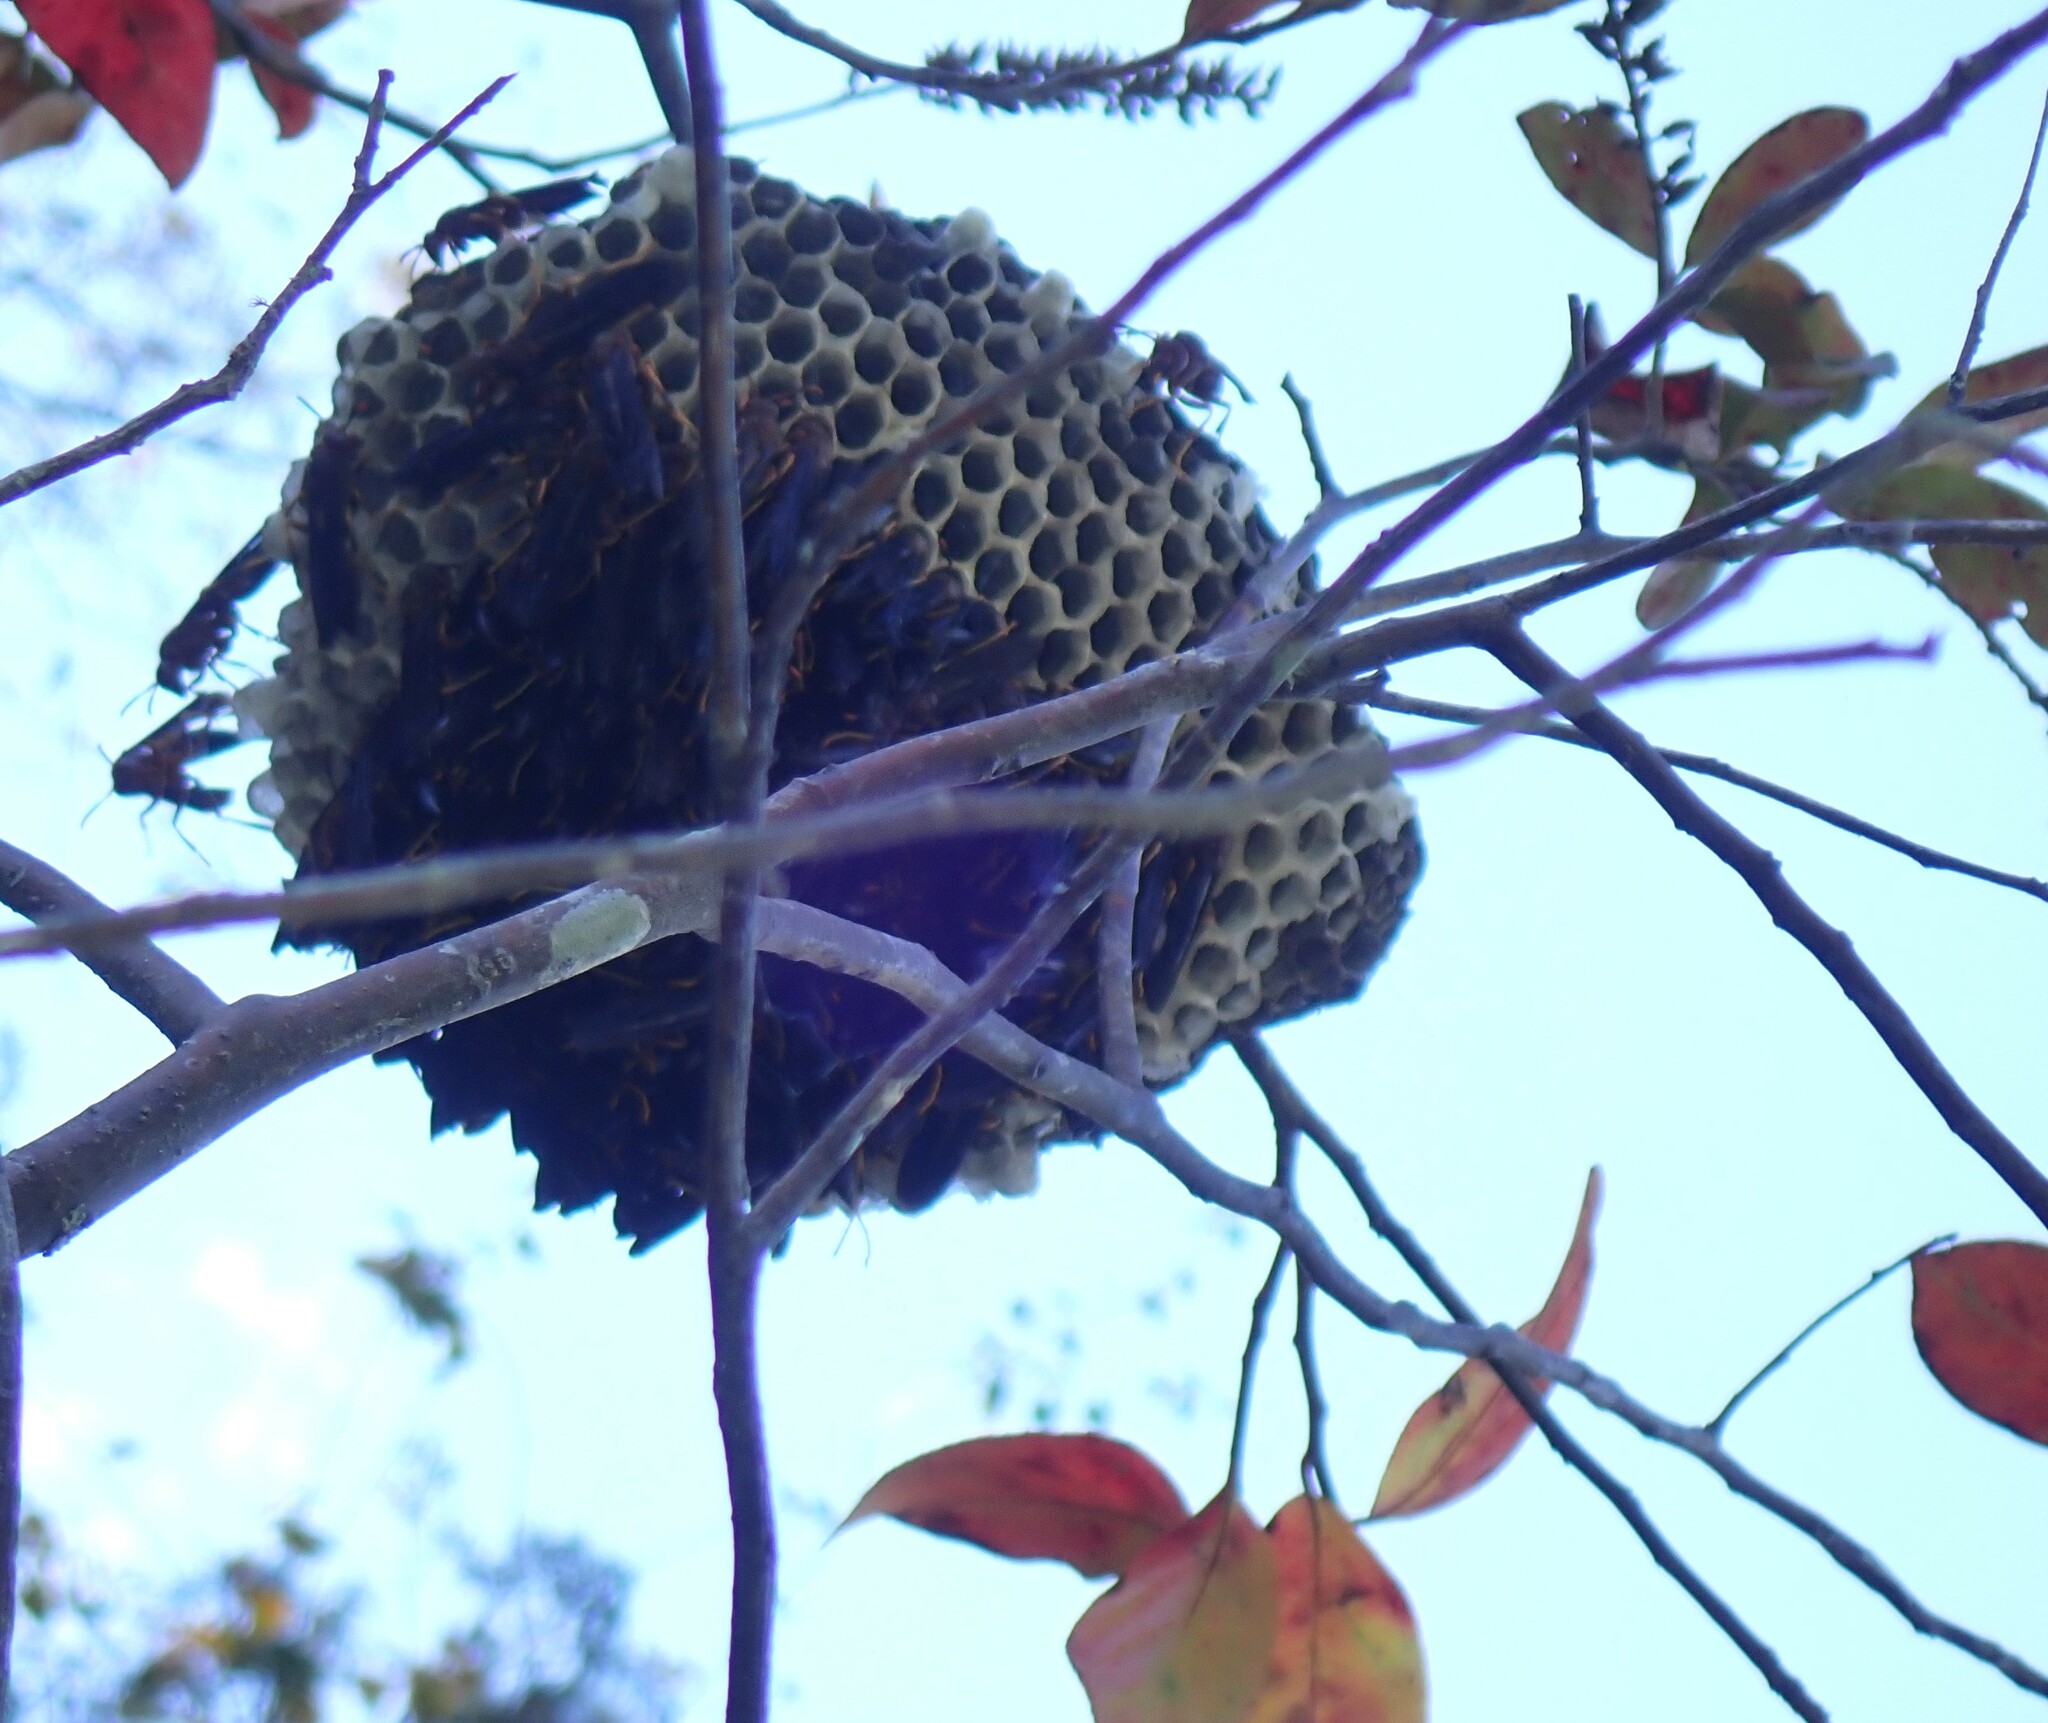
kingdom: Animalia
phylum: Arthropoda
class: Insecta
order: Hymenoptera
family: Eumenidae
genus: Polistes
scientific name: Polistes annularis
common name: Ringed paper wasp
